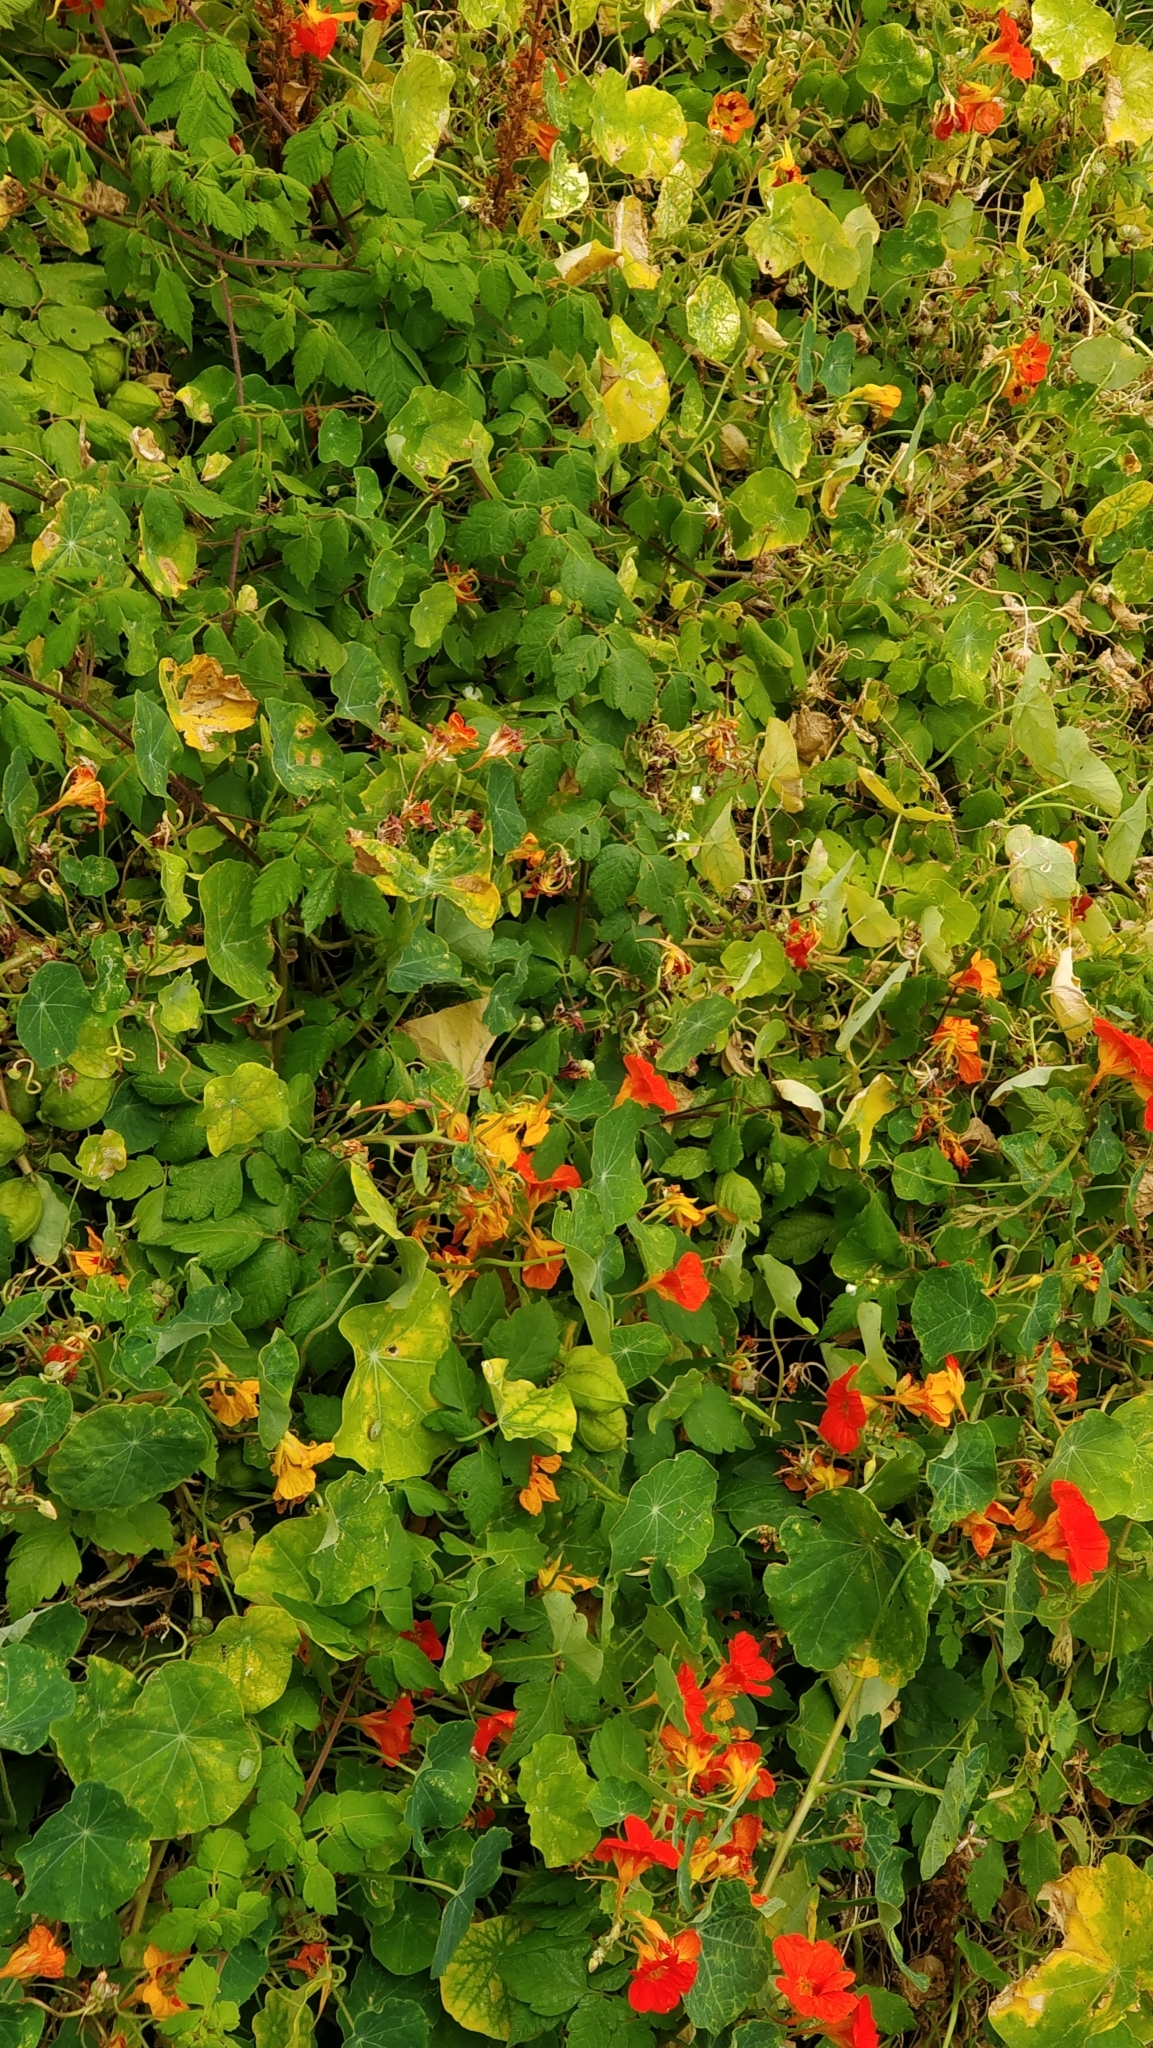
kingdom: Plantae
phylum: Tracheophyta
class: Magnoliopsida
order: Brassicales
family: Tropaeolaceae
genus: Tropaeolum
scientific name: Tropaeolum majus
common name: Nasturtium
